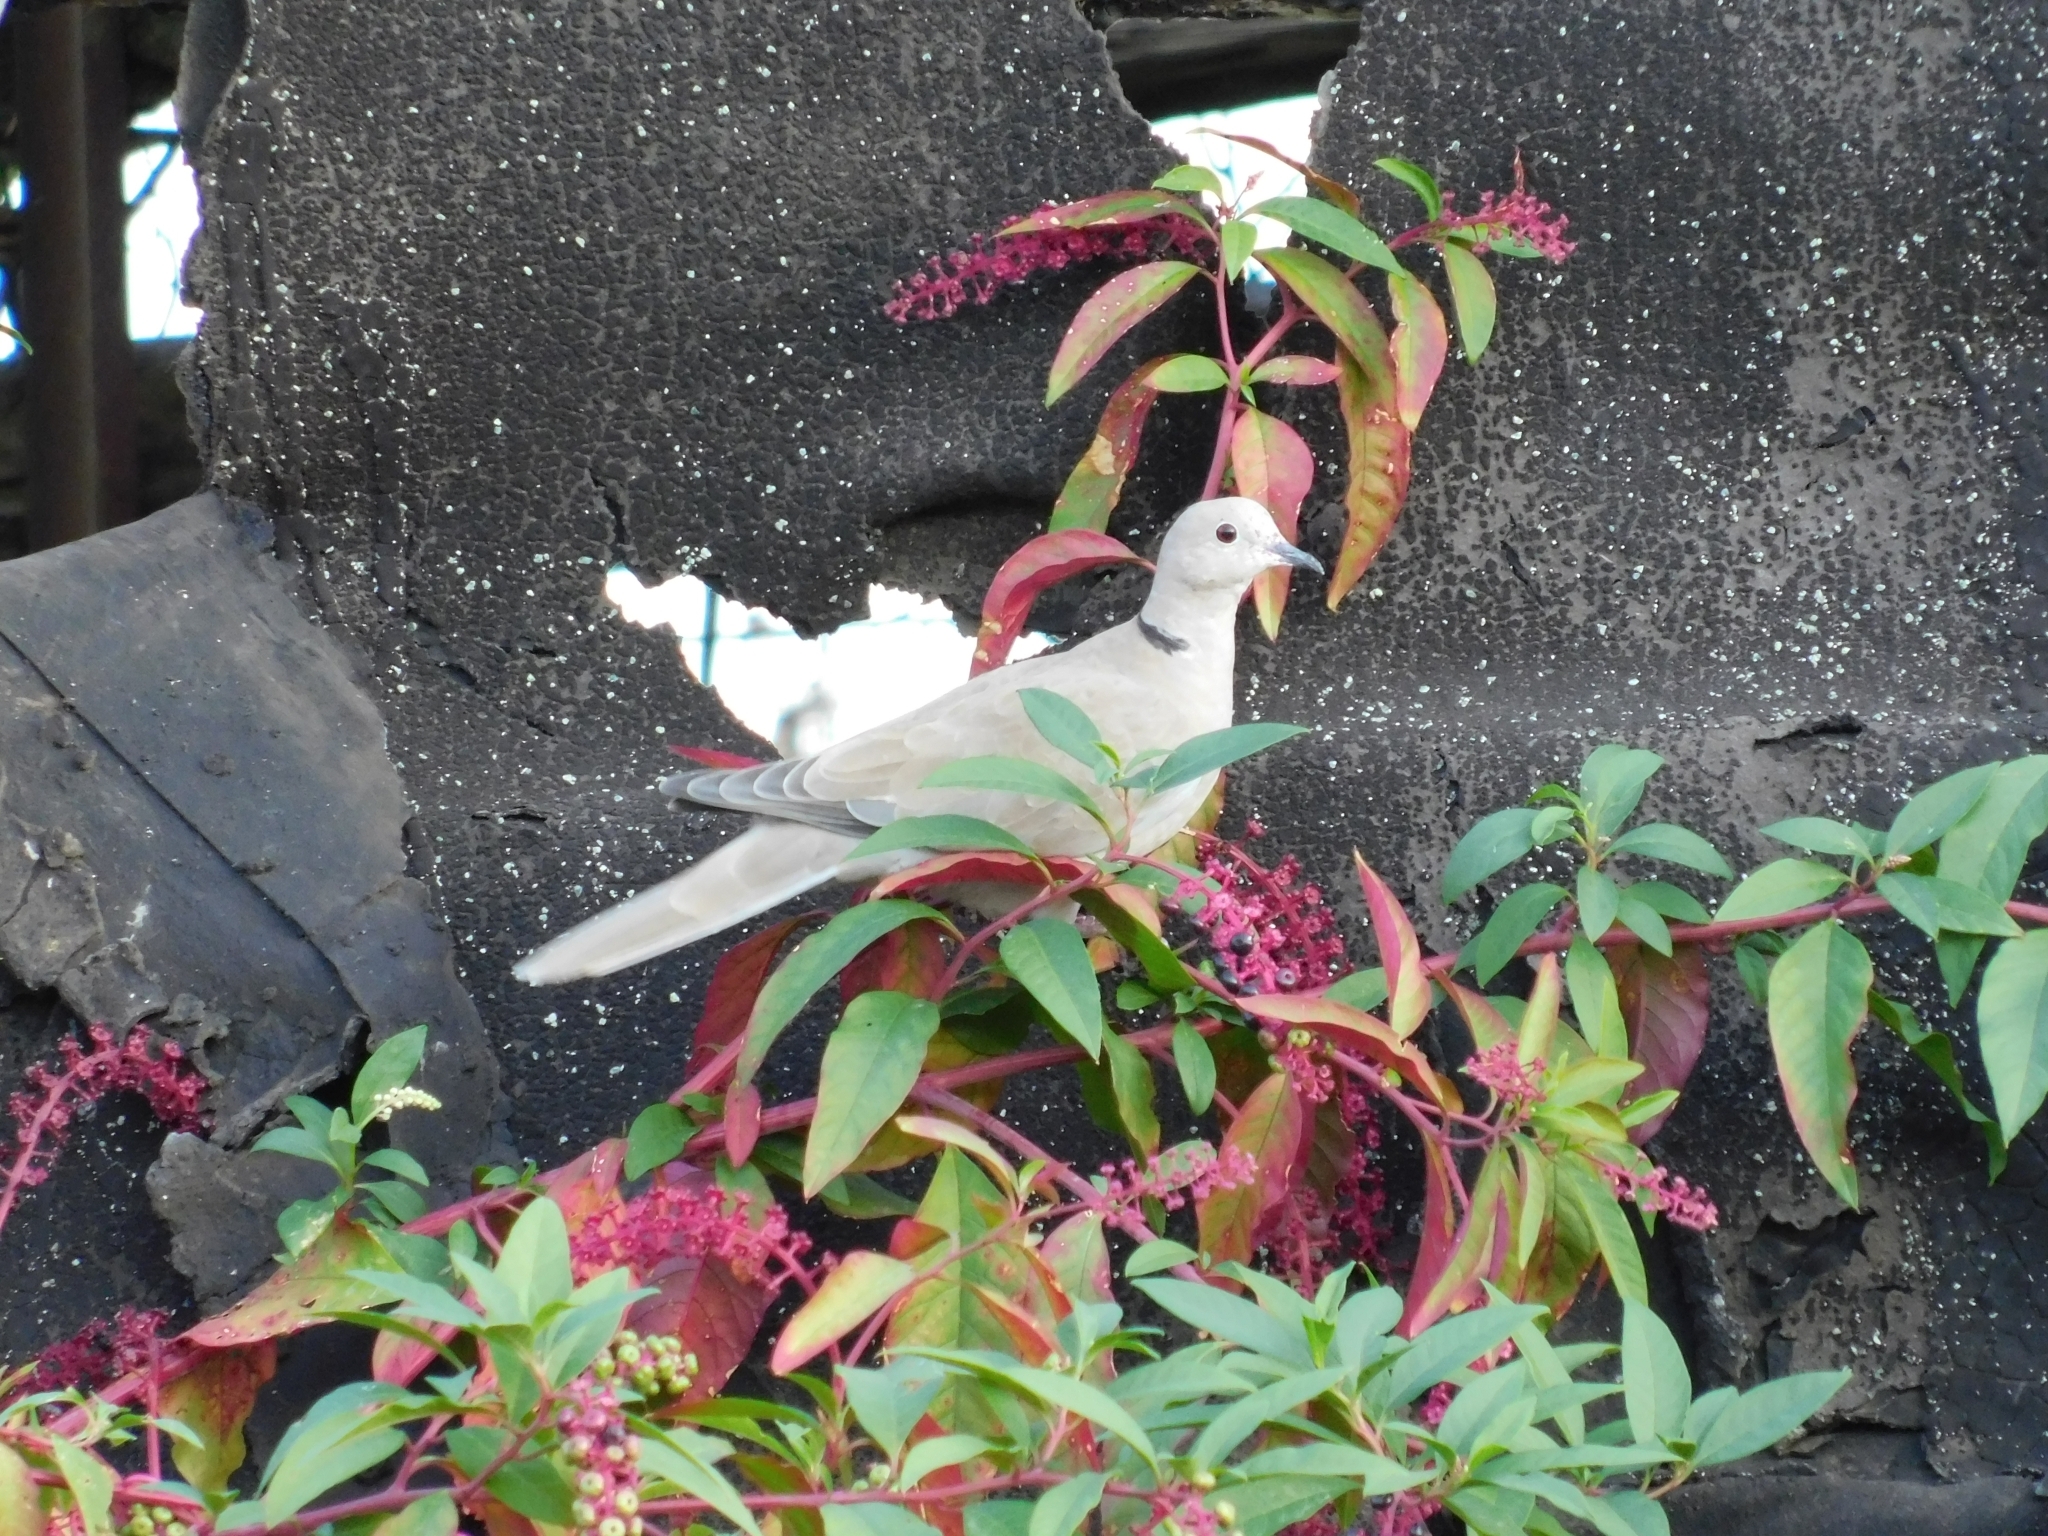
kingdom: Animalia
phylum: Chordata
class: Aves
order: Columbiformes
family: Columbidae
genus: Streptopelia
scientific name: Streptopelia decaocto
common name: Eurasian collared dove
